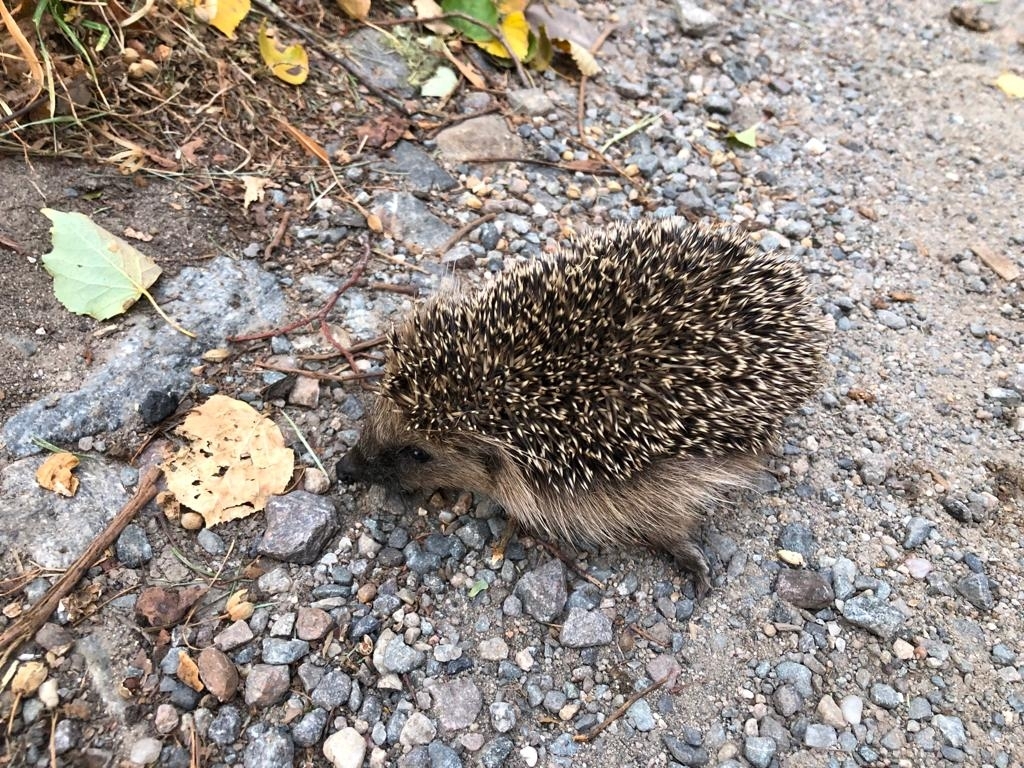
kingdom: Animalia
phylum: Chordata
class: Mammalia
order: Erinaceomorpha
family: Erinaceidae
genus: Erinaceus
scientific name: Erinaceus europaeus
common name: West european hedgehog
